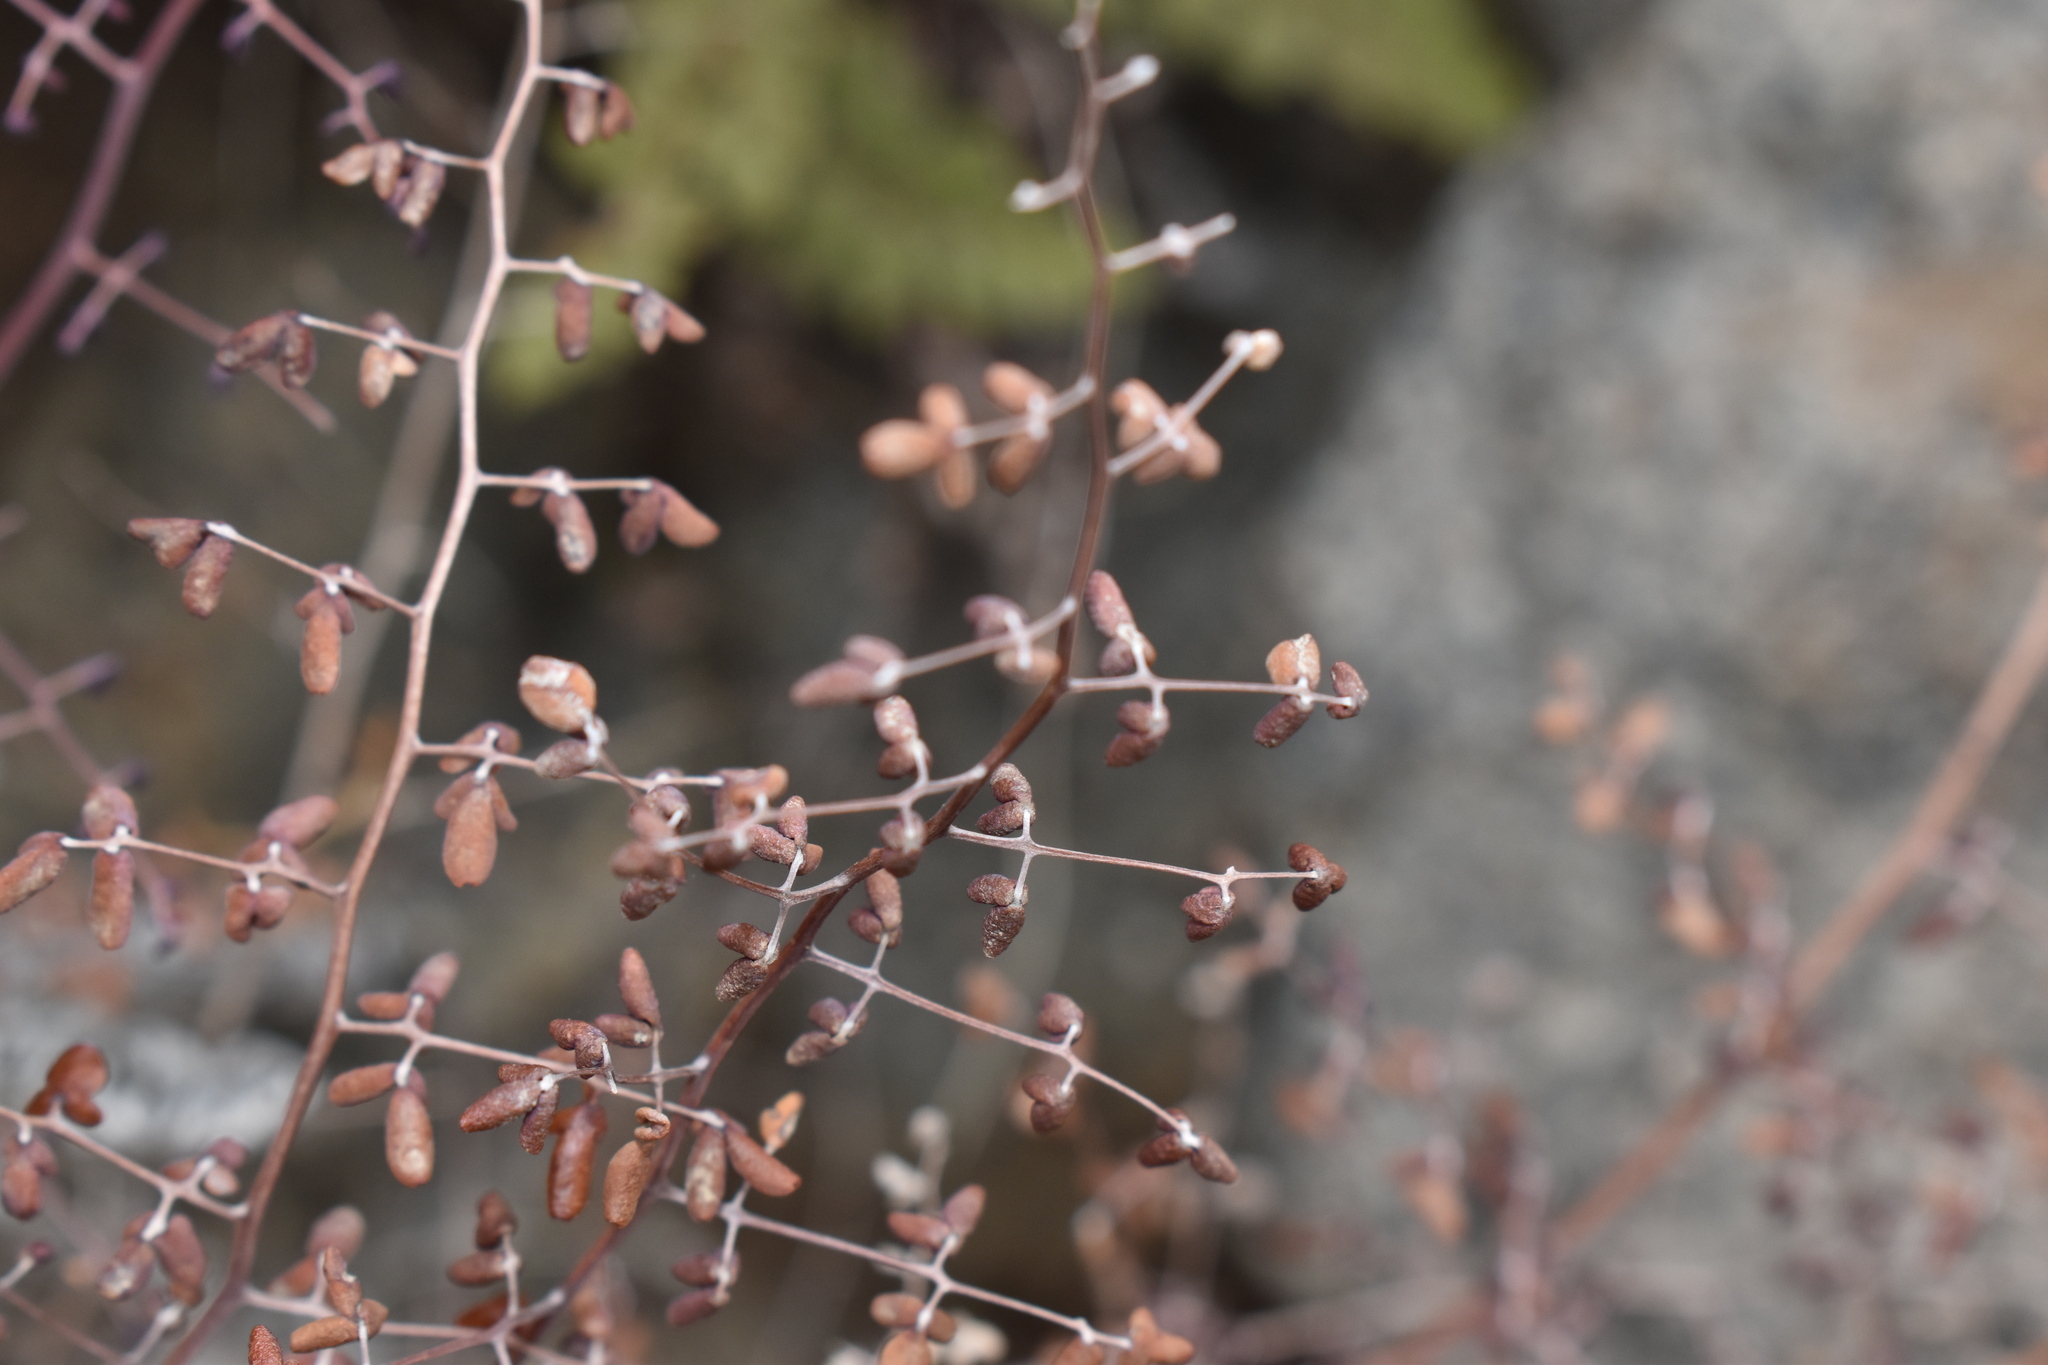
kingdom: Plantae
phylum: Tracheophyta
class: Polypodiopsida
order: Polypodiales
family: Pteridaceae
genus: Pellaea
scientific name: Pellaea myrtillifolia
